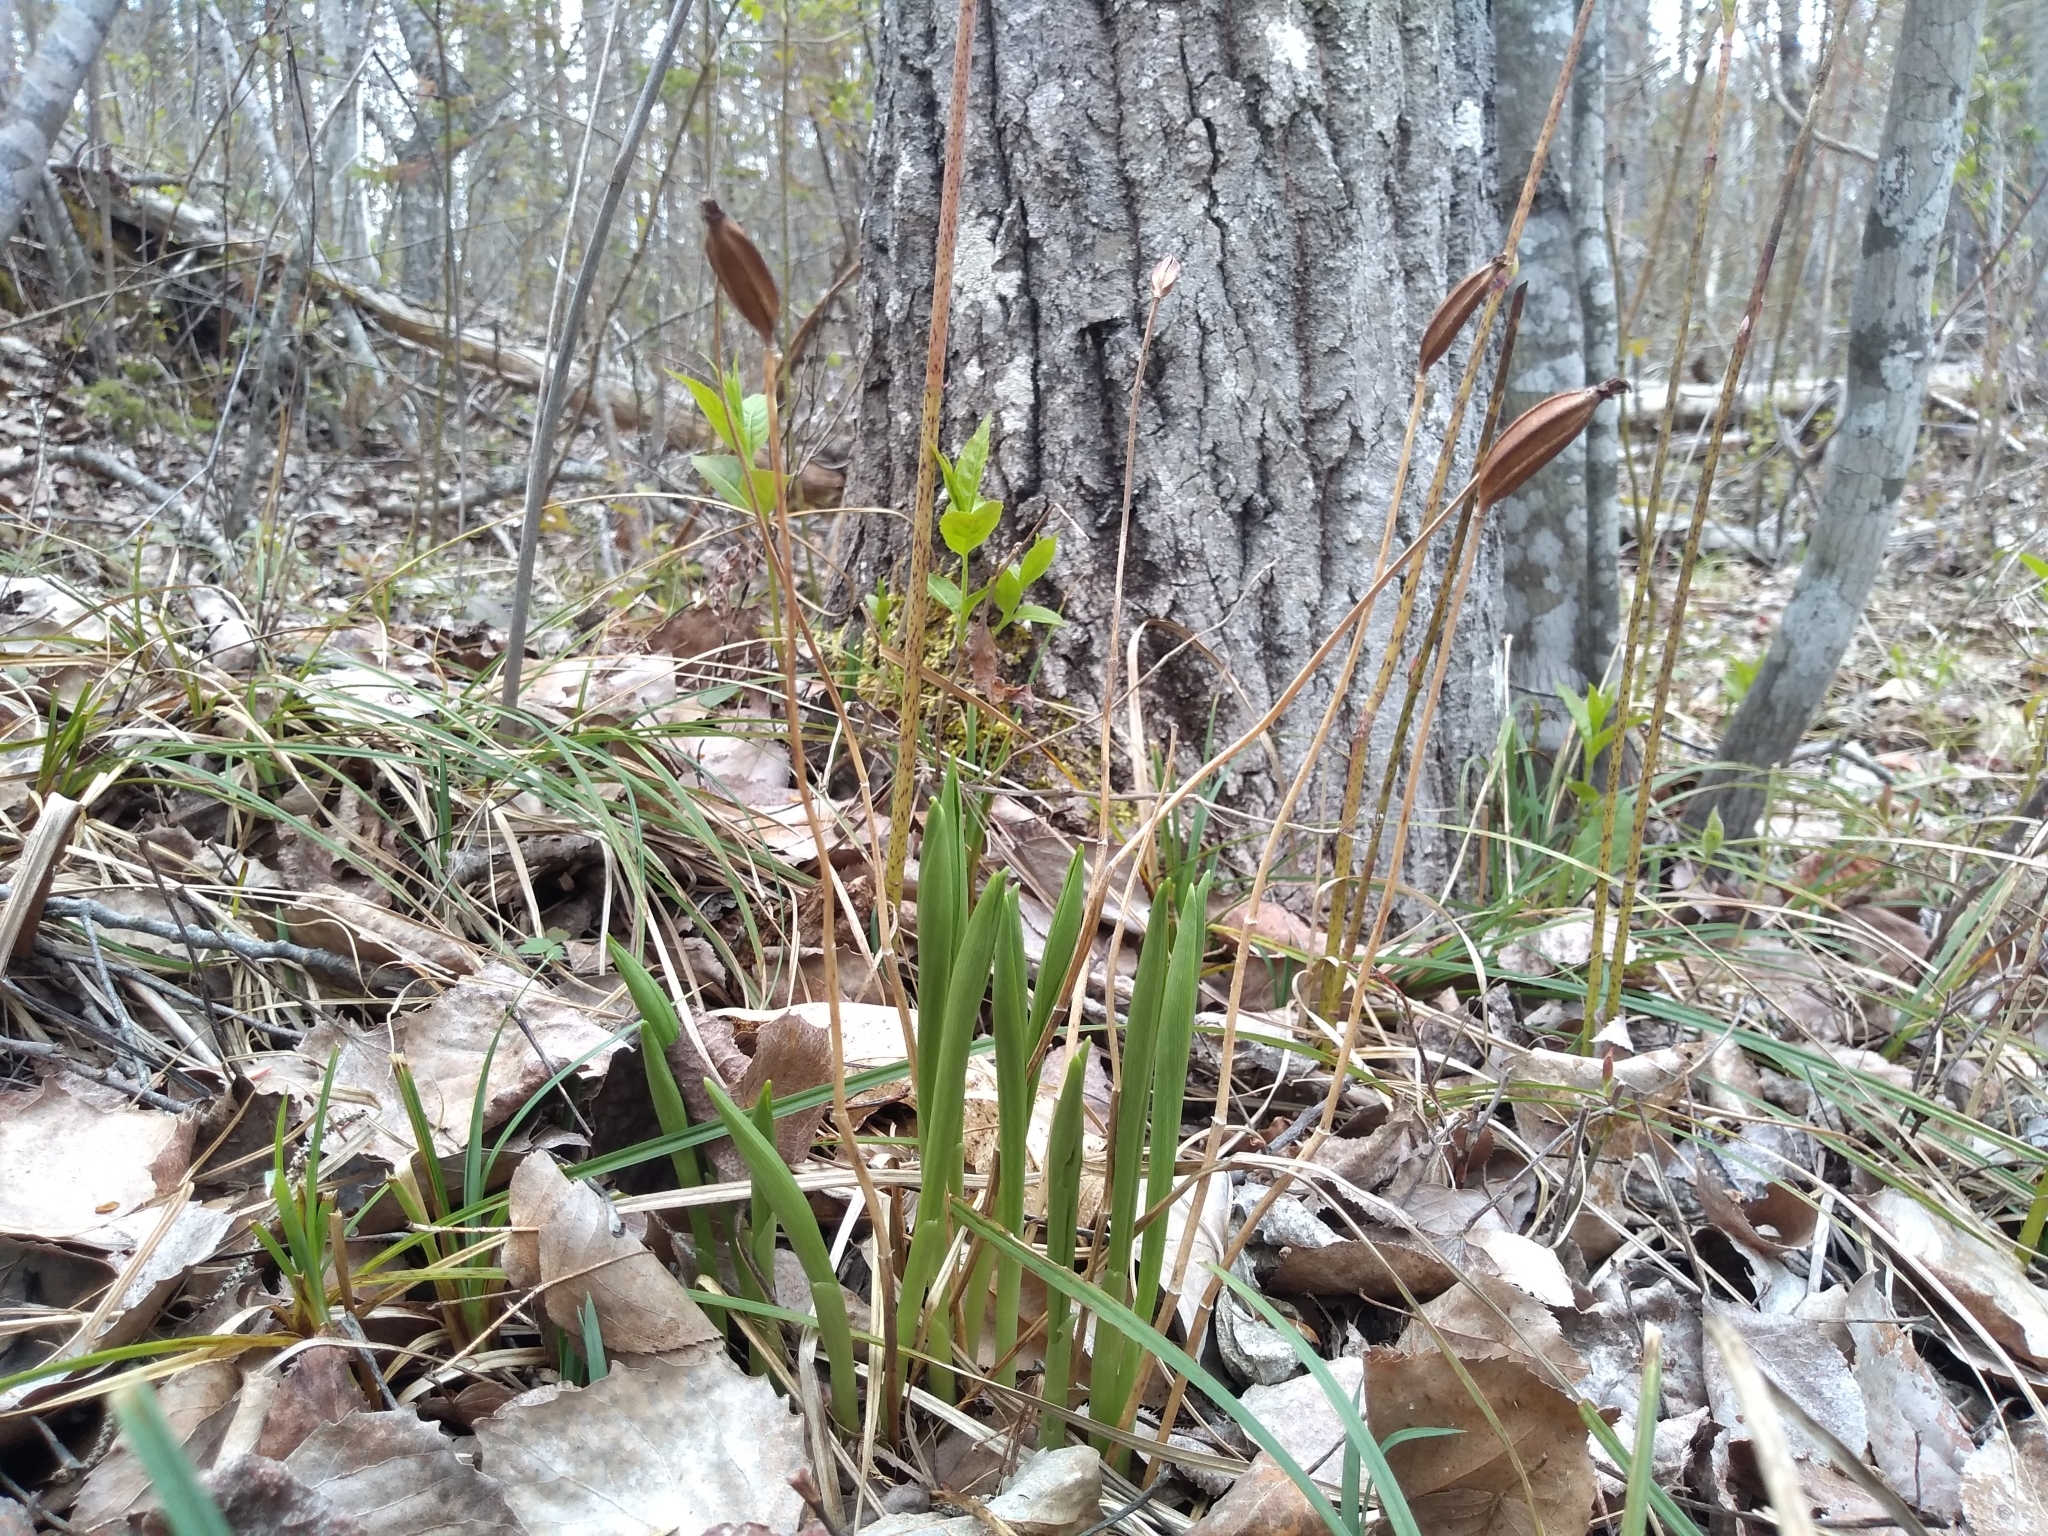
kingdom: Plantae
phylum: Tracheophyta
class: Liliopsida
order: Asparagales
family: Orchidaceae
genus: Cypripedium
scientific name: Cypripedium arietinum
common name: Ram's-head
